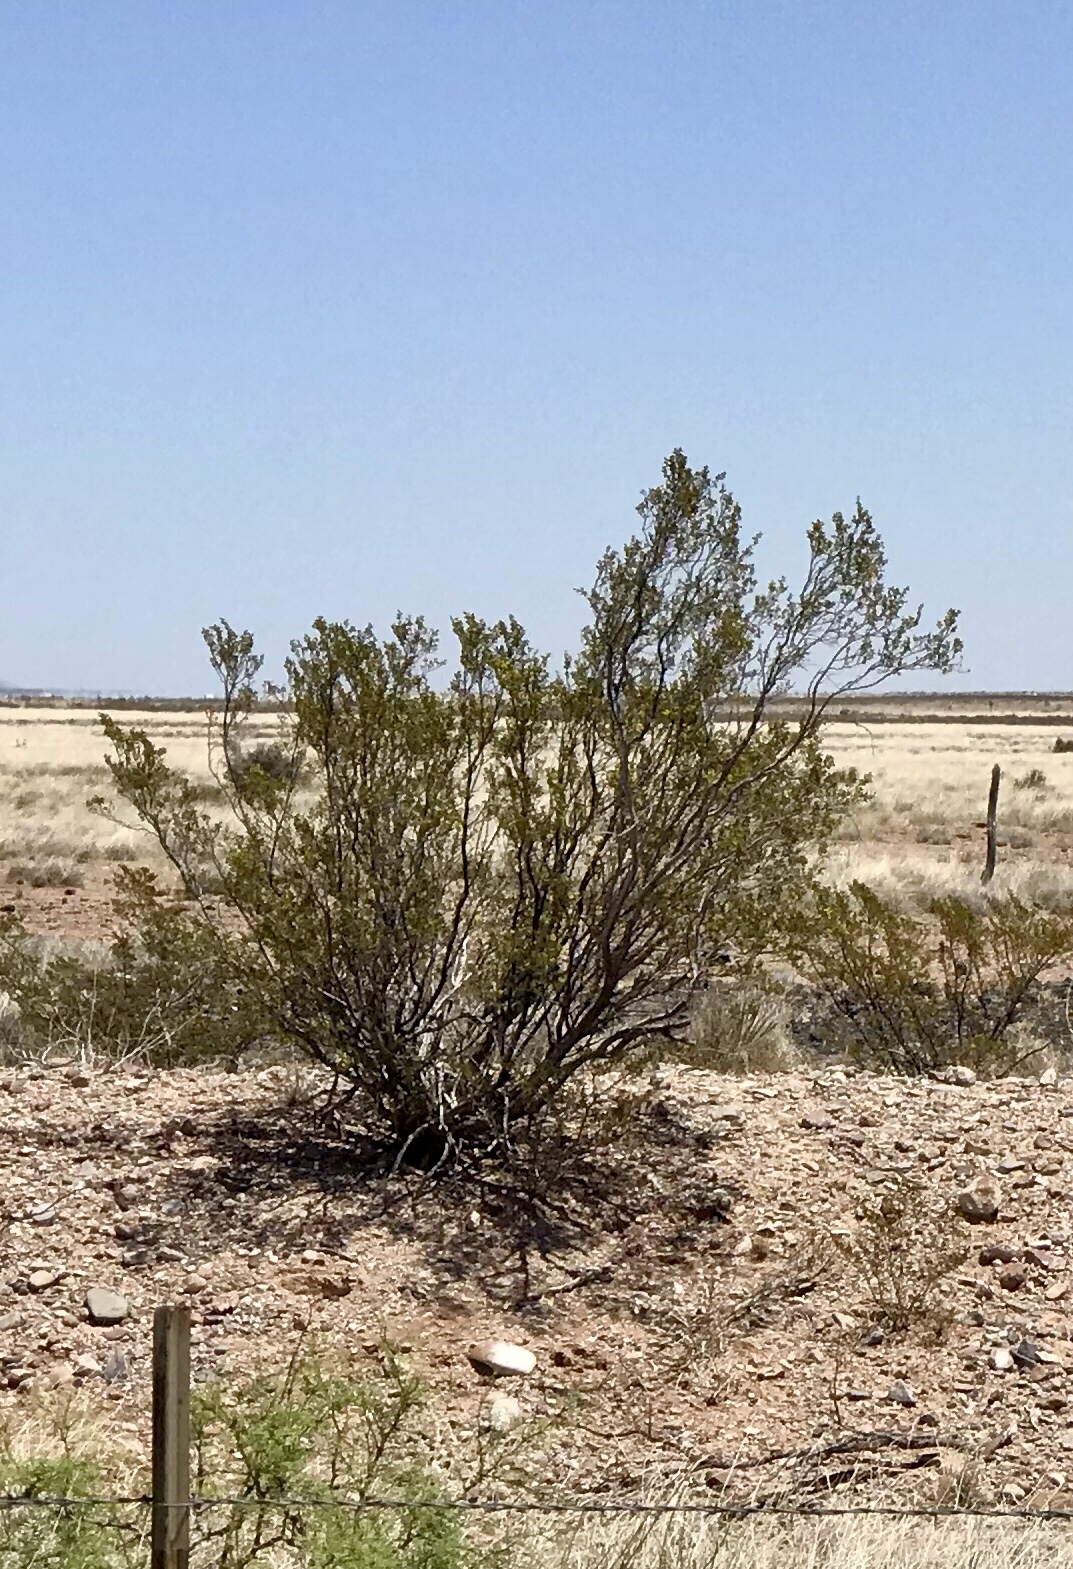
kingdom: Plantae
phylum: Tracheophyta
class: Magnoliopsida
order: Zygophyllales
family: Zygophyllaceae
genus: Larrea
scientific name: Larrea tridentata
